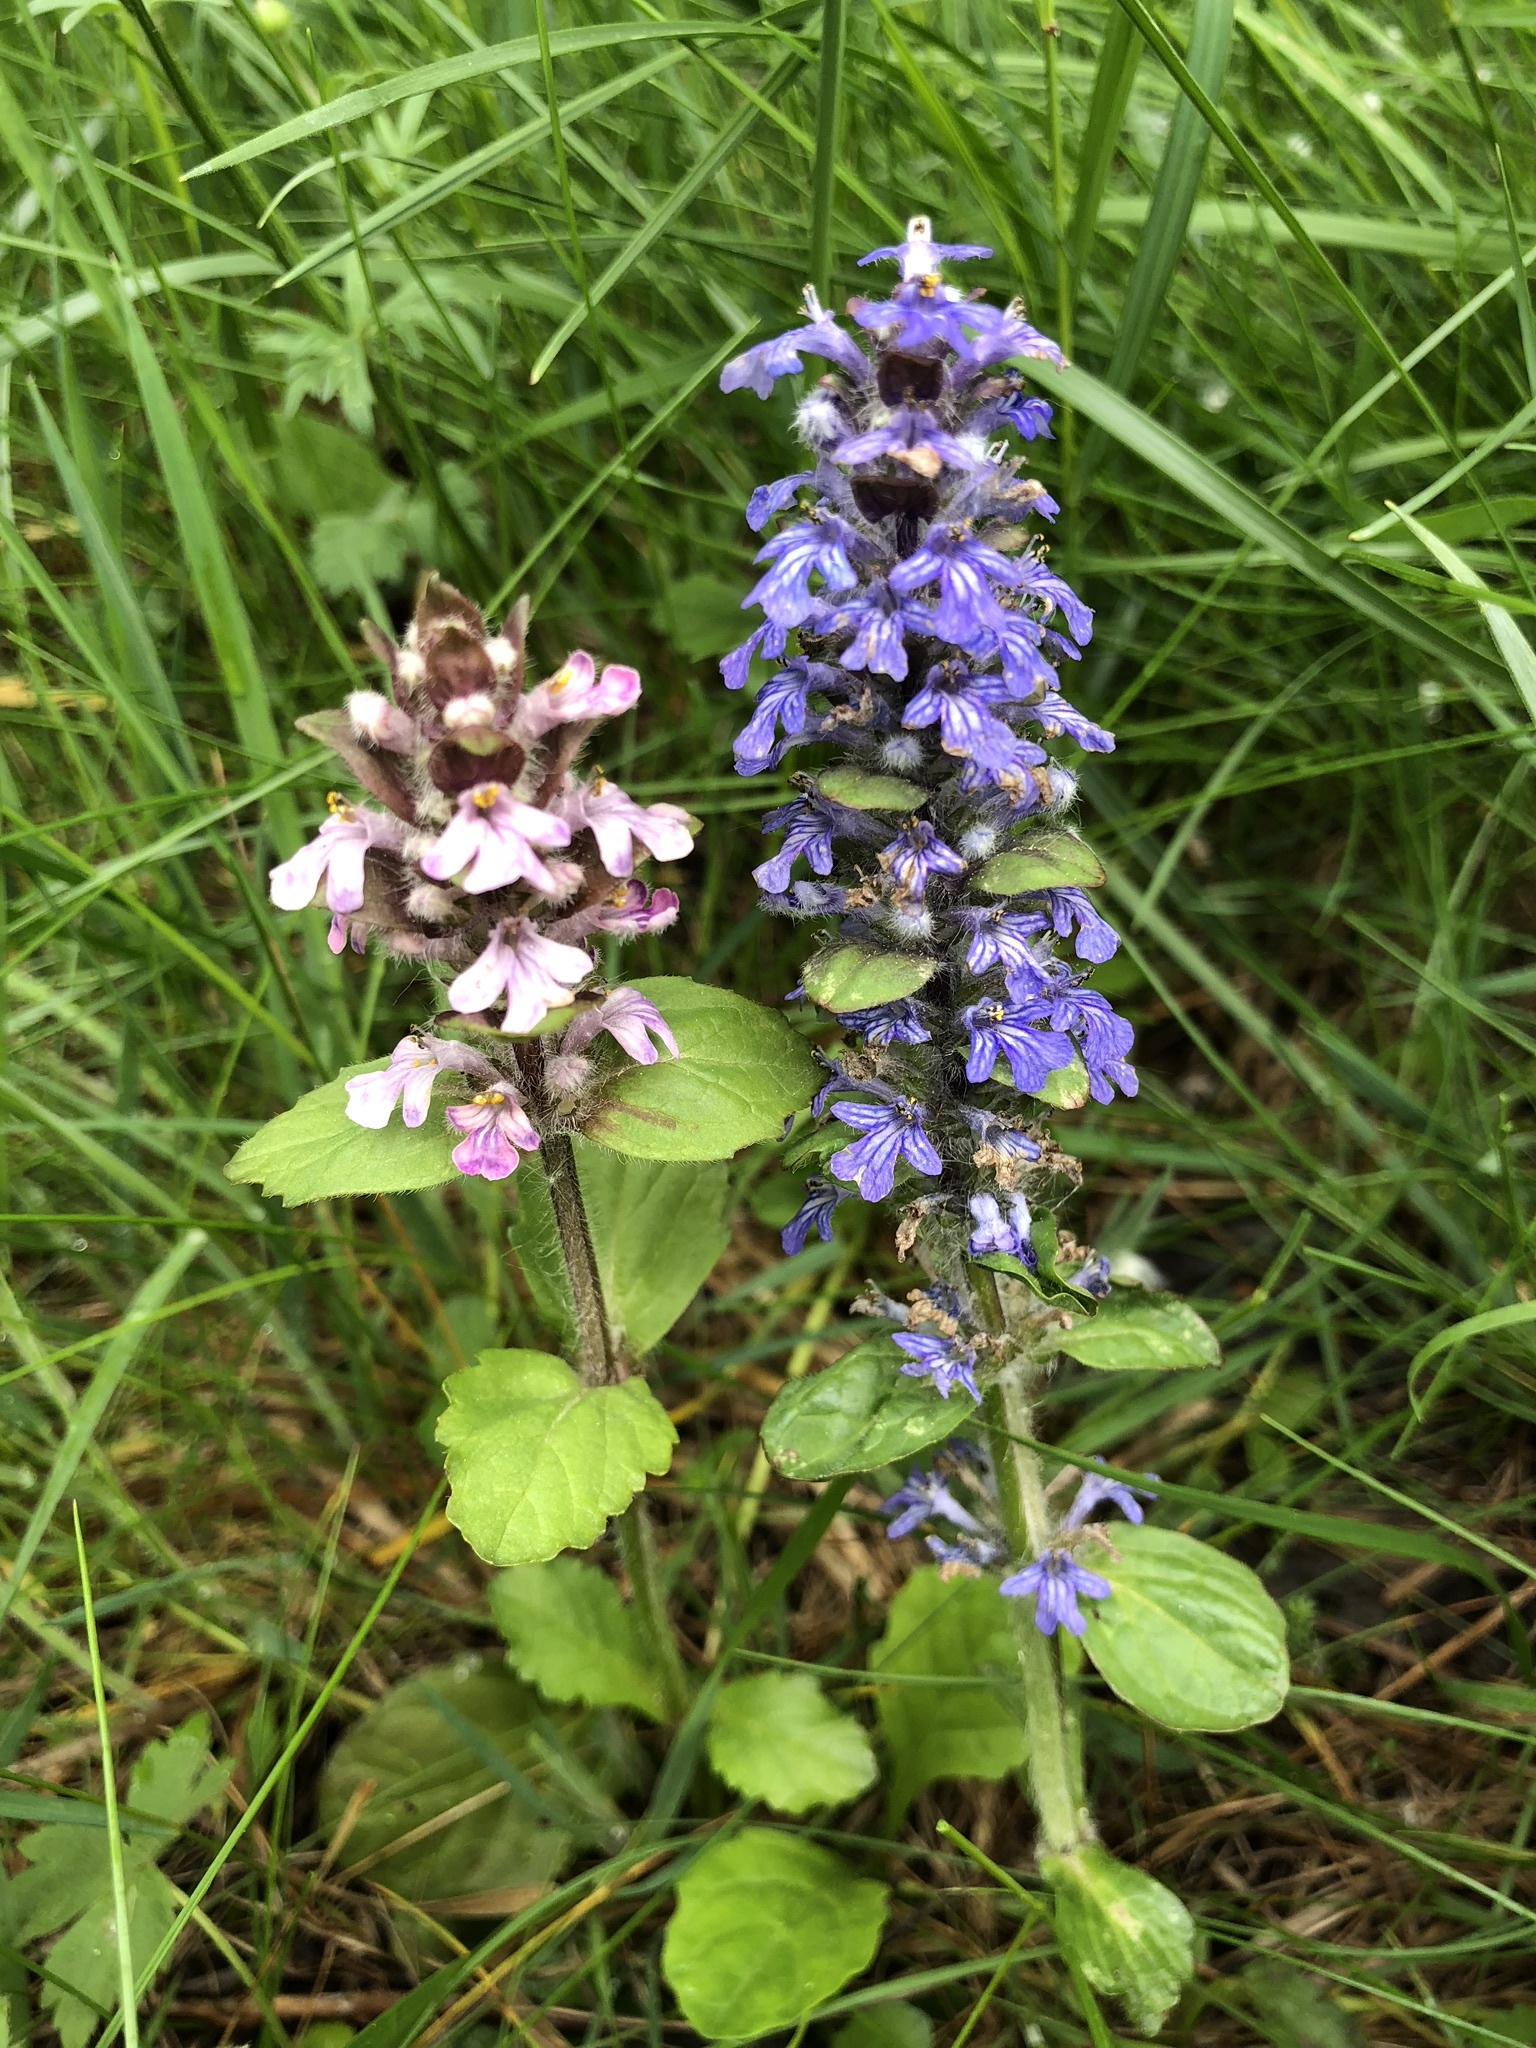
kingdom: Plantae
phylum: Tracheophyta
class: Magnoliopsida
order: Lamiales
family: Lamiaceae
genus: Ajuga
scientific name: Ajuga reptans
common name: Bugle
